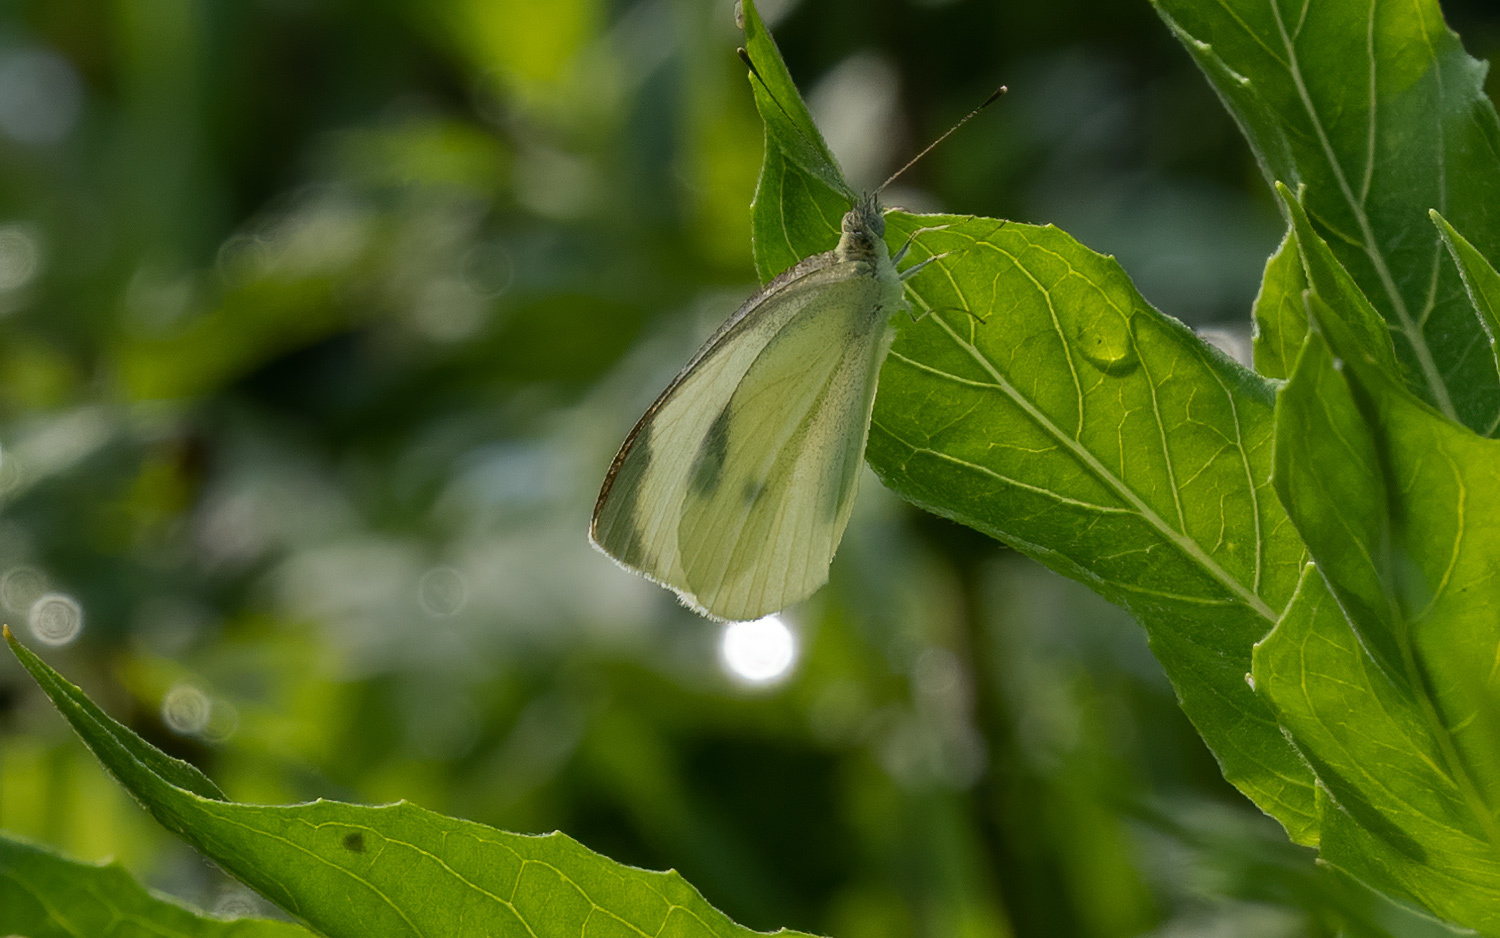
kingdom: Animalia
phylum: Arthropoda
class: Insecta
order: Lepidoptera
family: Pieridae
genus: Pieris
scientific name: Pieris rapae
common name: Small white
